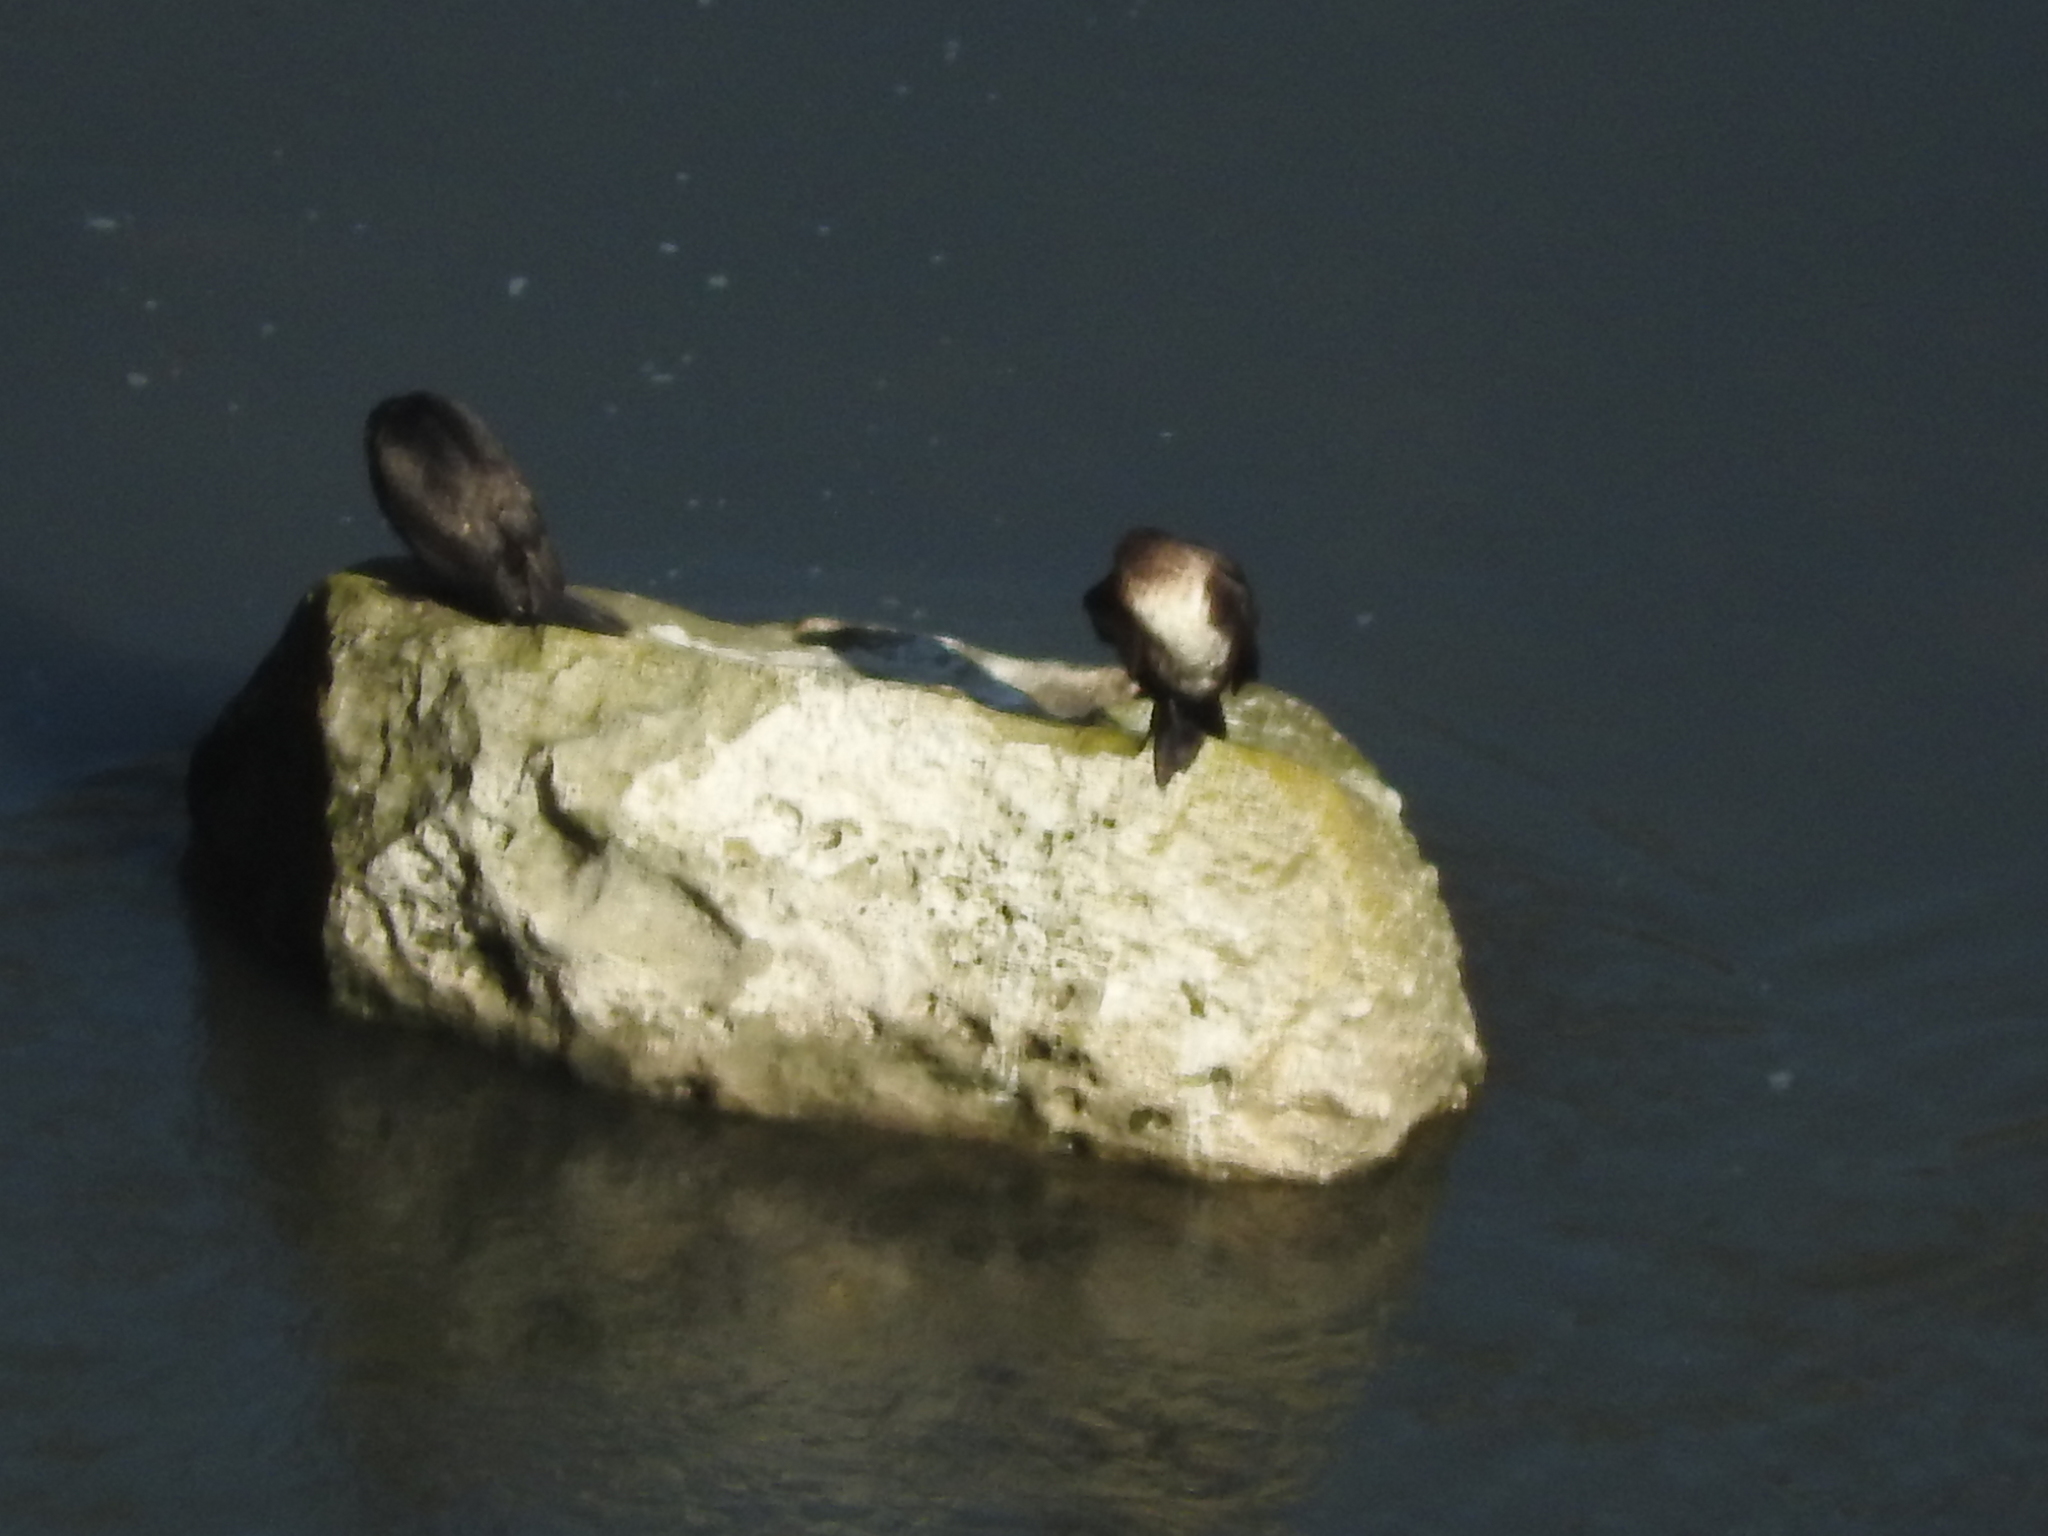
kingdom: Animalia
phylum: Chordata
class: Aves
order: Suliformes
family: Phalacrocoracidae
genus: Phalacrocorax
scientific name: Phalacrocorax carbo
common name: Great cormorant
